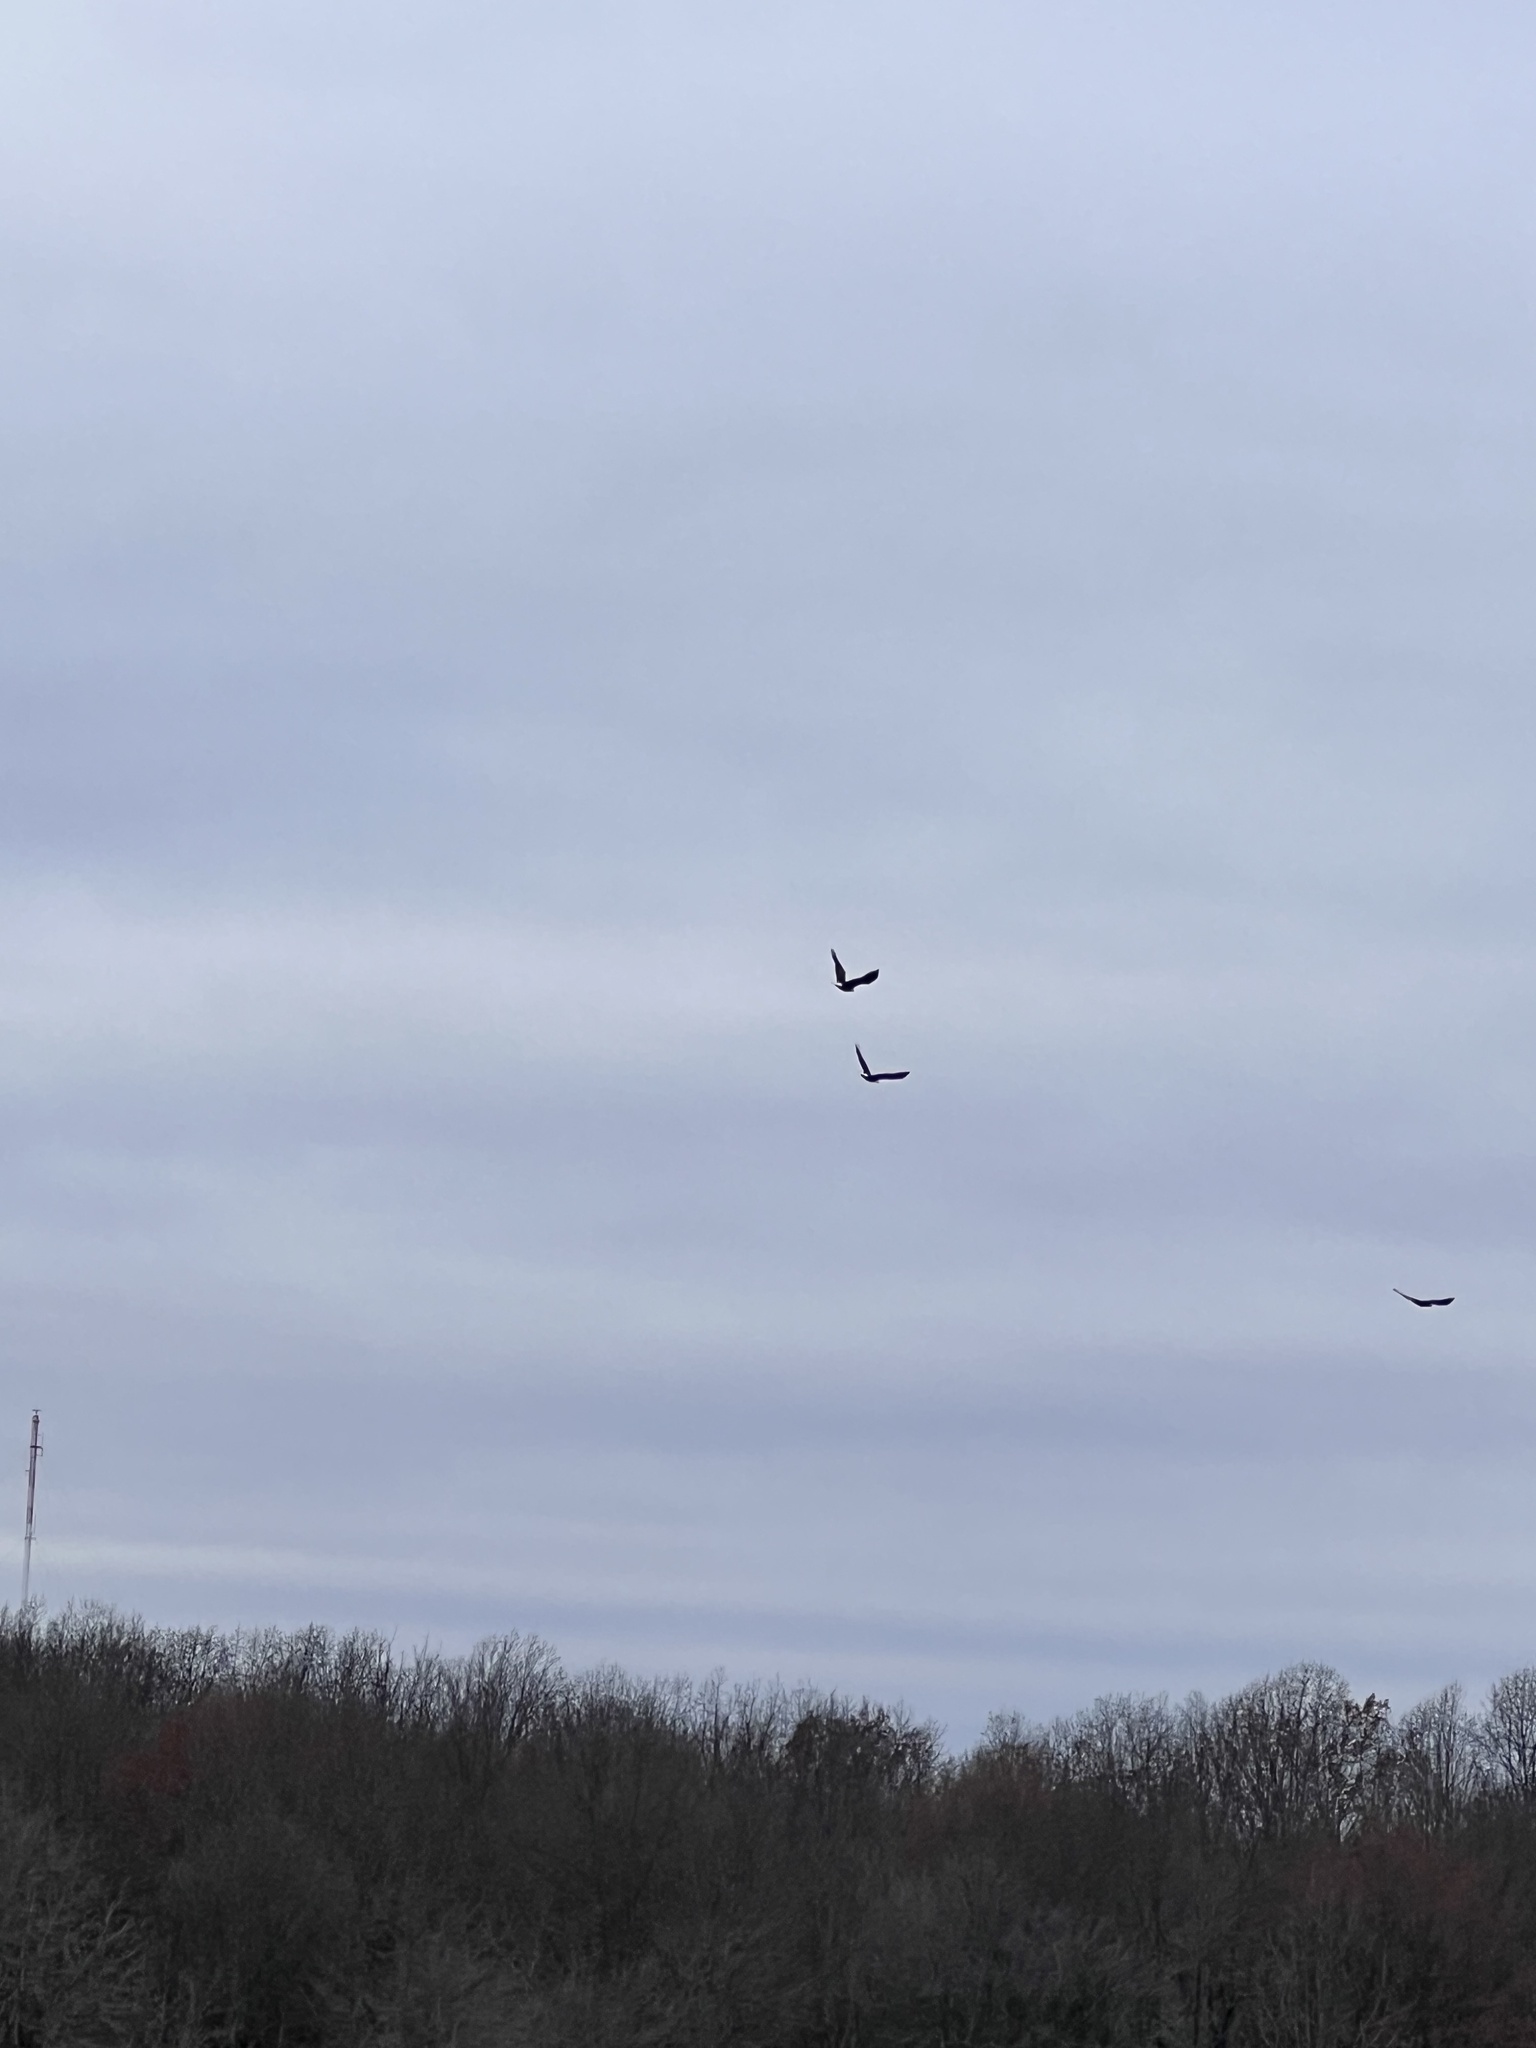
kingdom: Animalia
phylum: Chordata
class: Aves
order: Accipitriformes
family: Accipitridae
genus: Haliaeetus
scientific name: Haliaeetus leucocephalus
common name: Bald eagle
